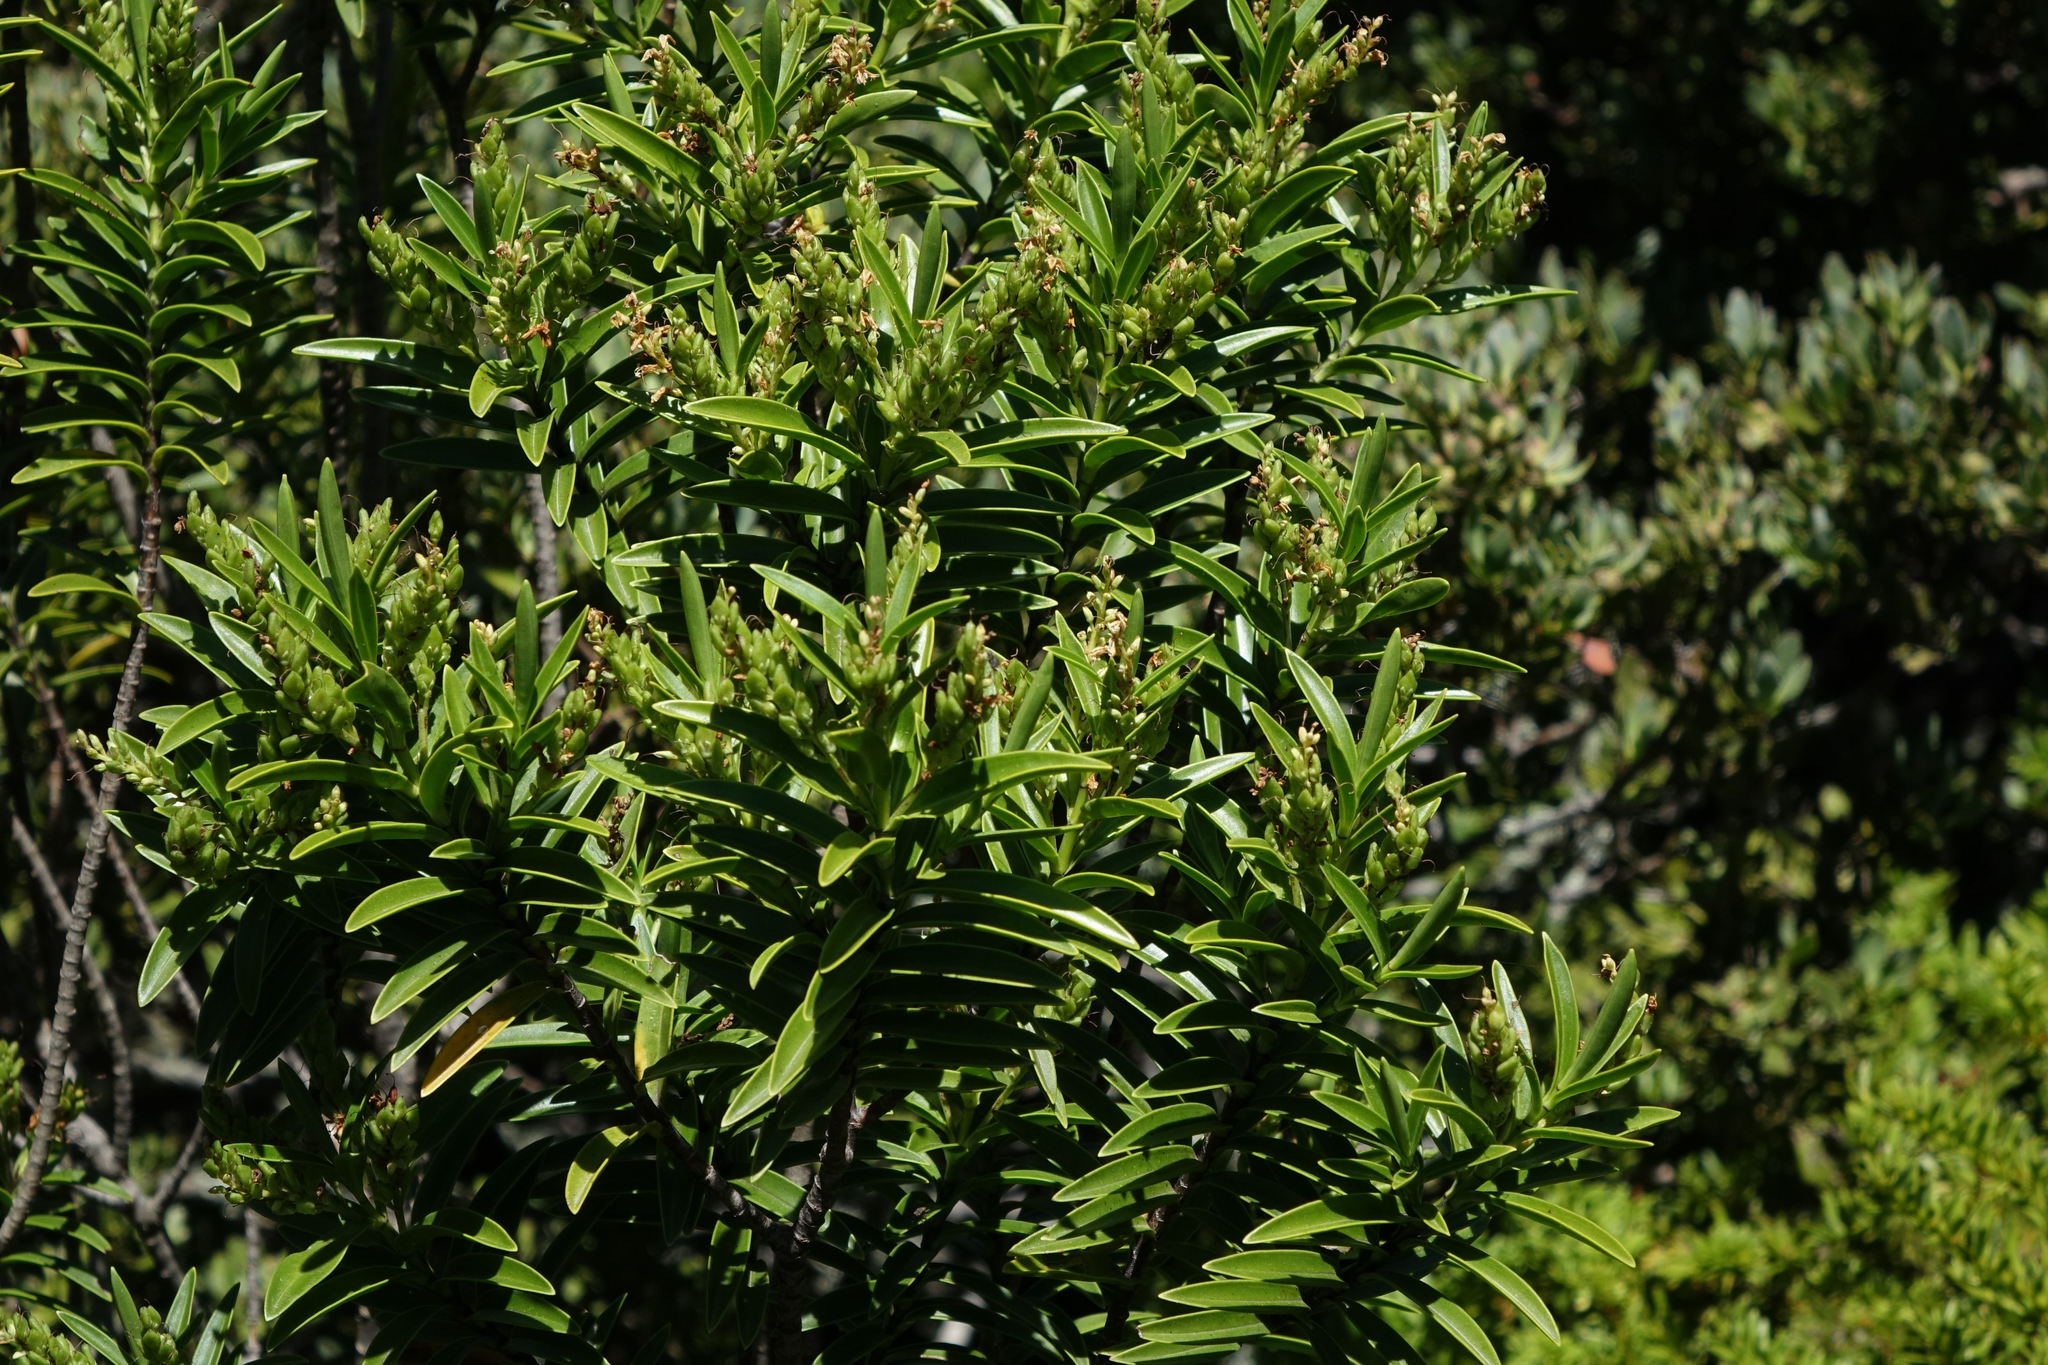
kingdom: Plantae
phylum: Tracheophyta
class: Magnoliopsida
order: Lamiales
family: Plantaginaceae
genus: Veronica
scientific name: Veronica subalpina
